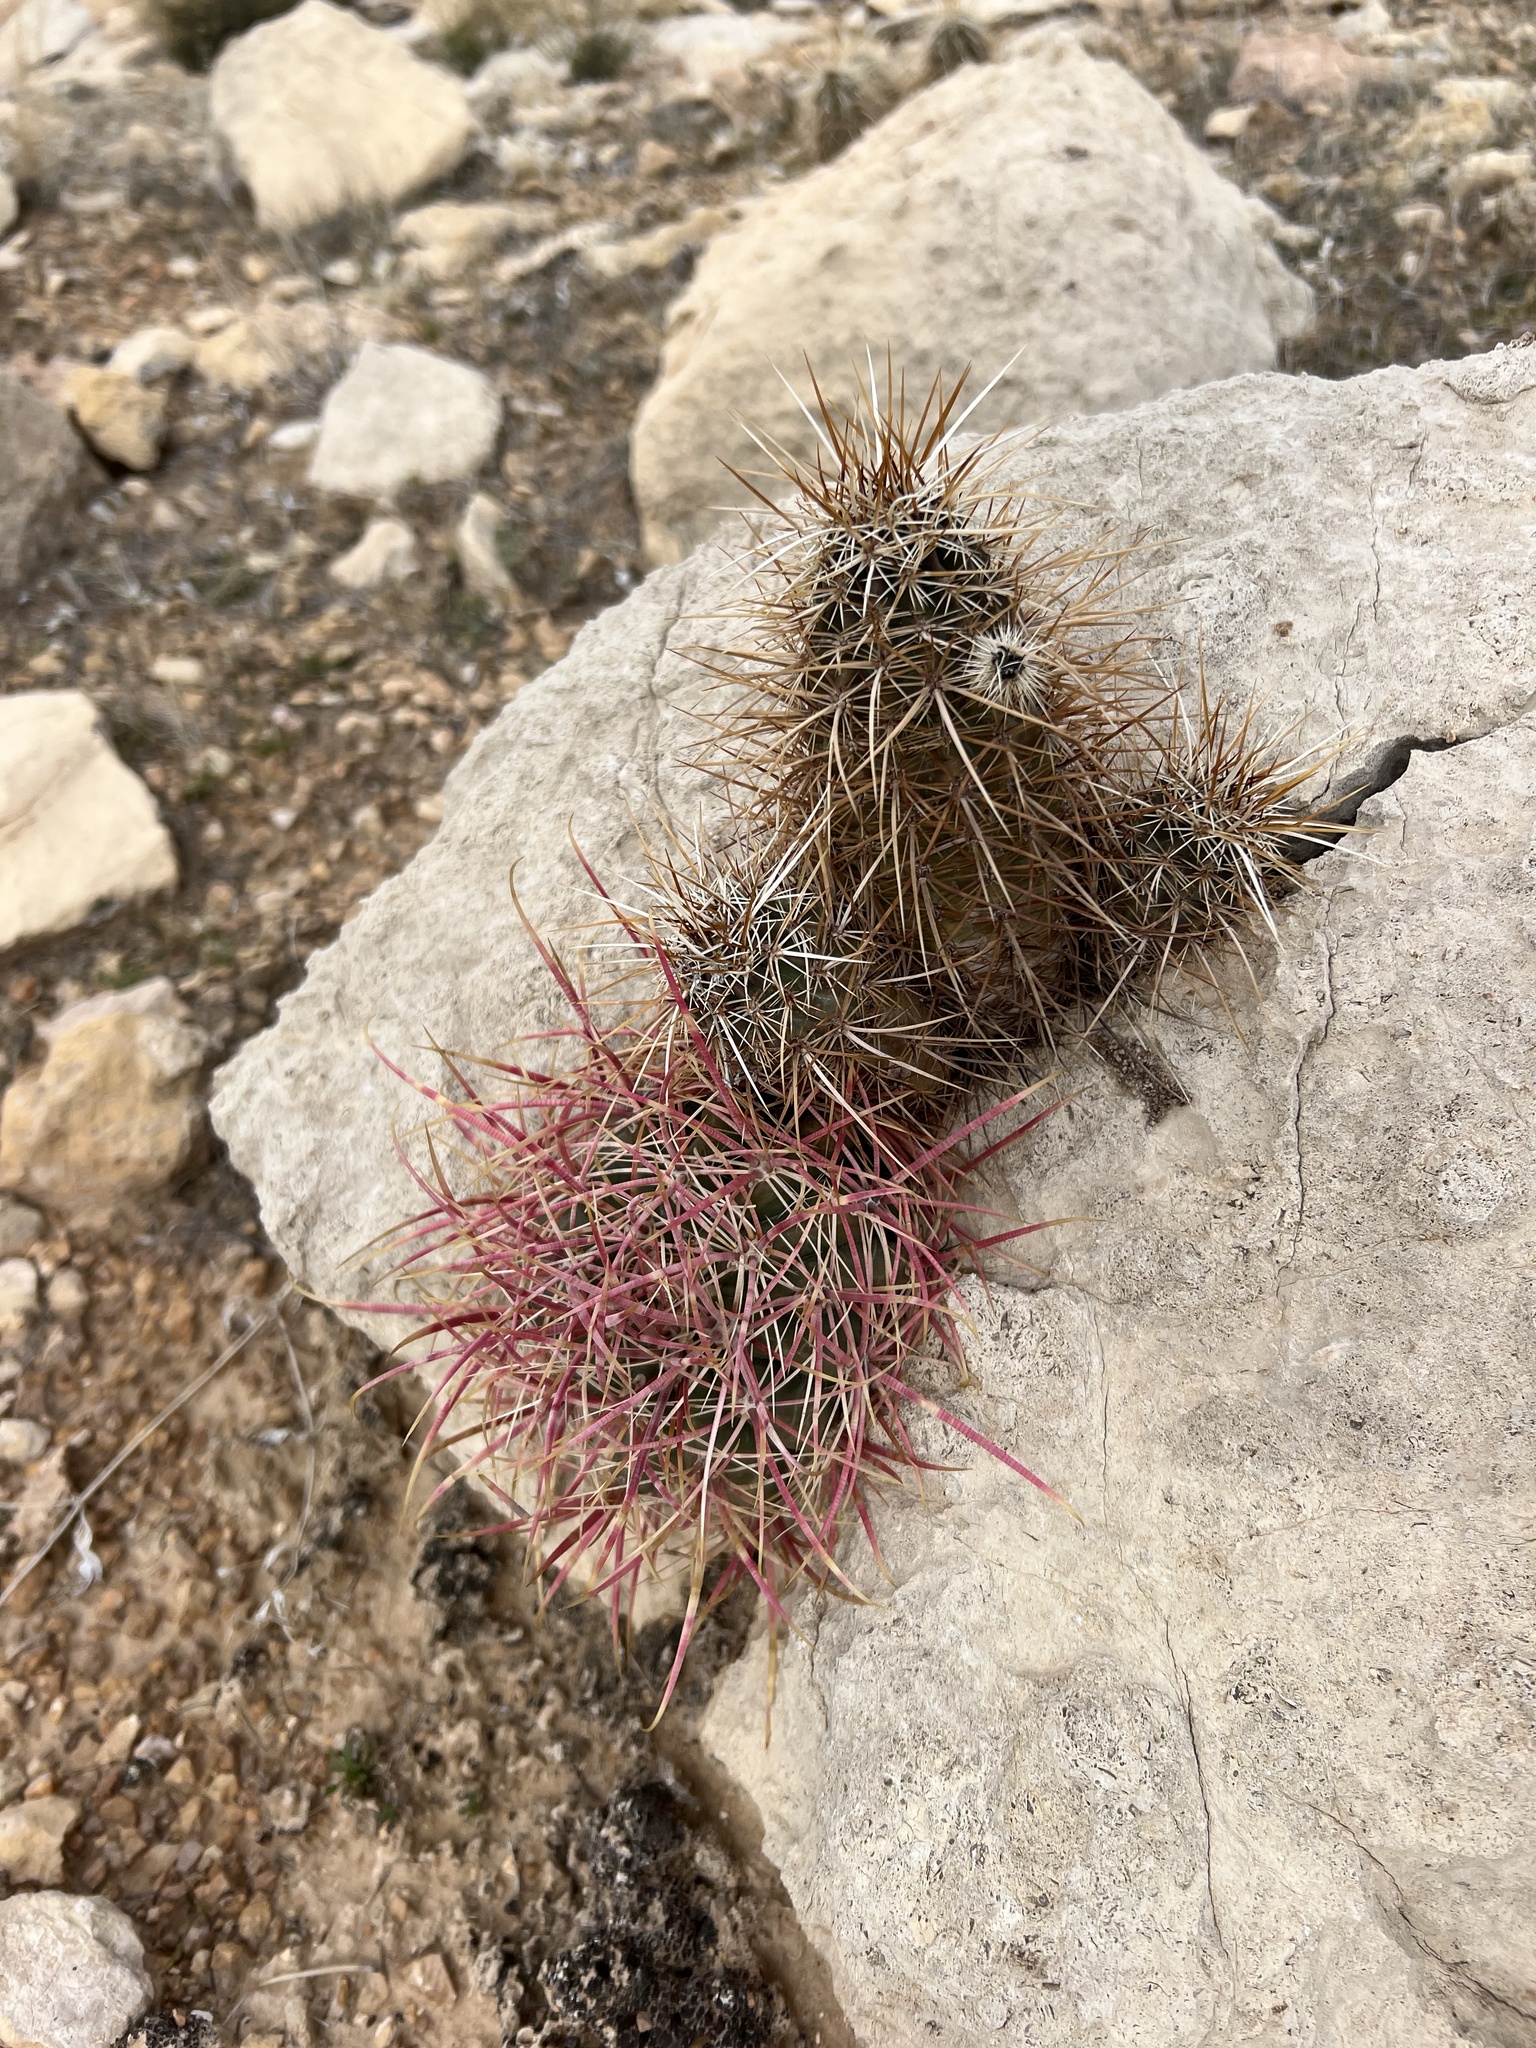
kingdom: Plantae
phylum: Tracheophyta
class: Magnoliopsida
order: Caryophyllales
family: Cactaceae
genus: Echinocereus
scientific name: Echinocereus engelmannii
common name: Engelmann's hedgehog cactus
